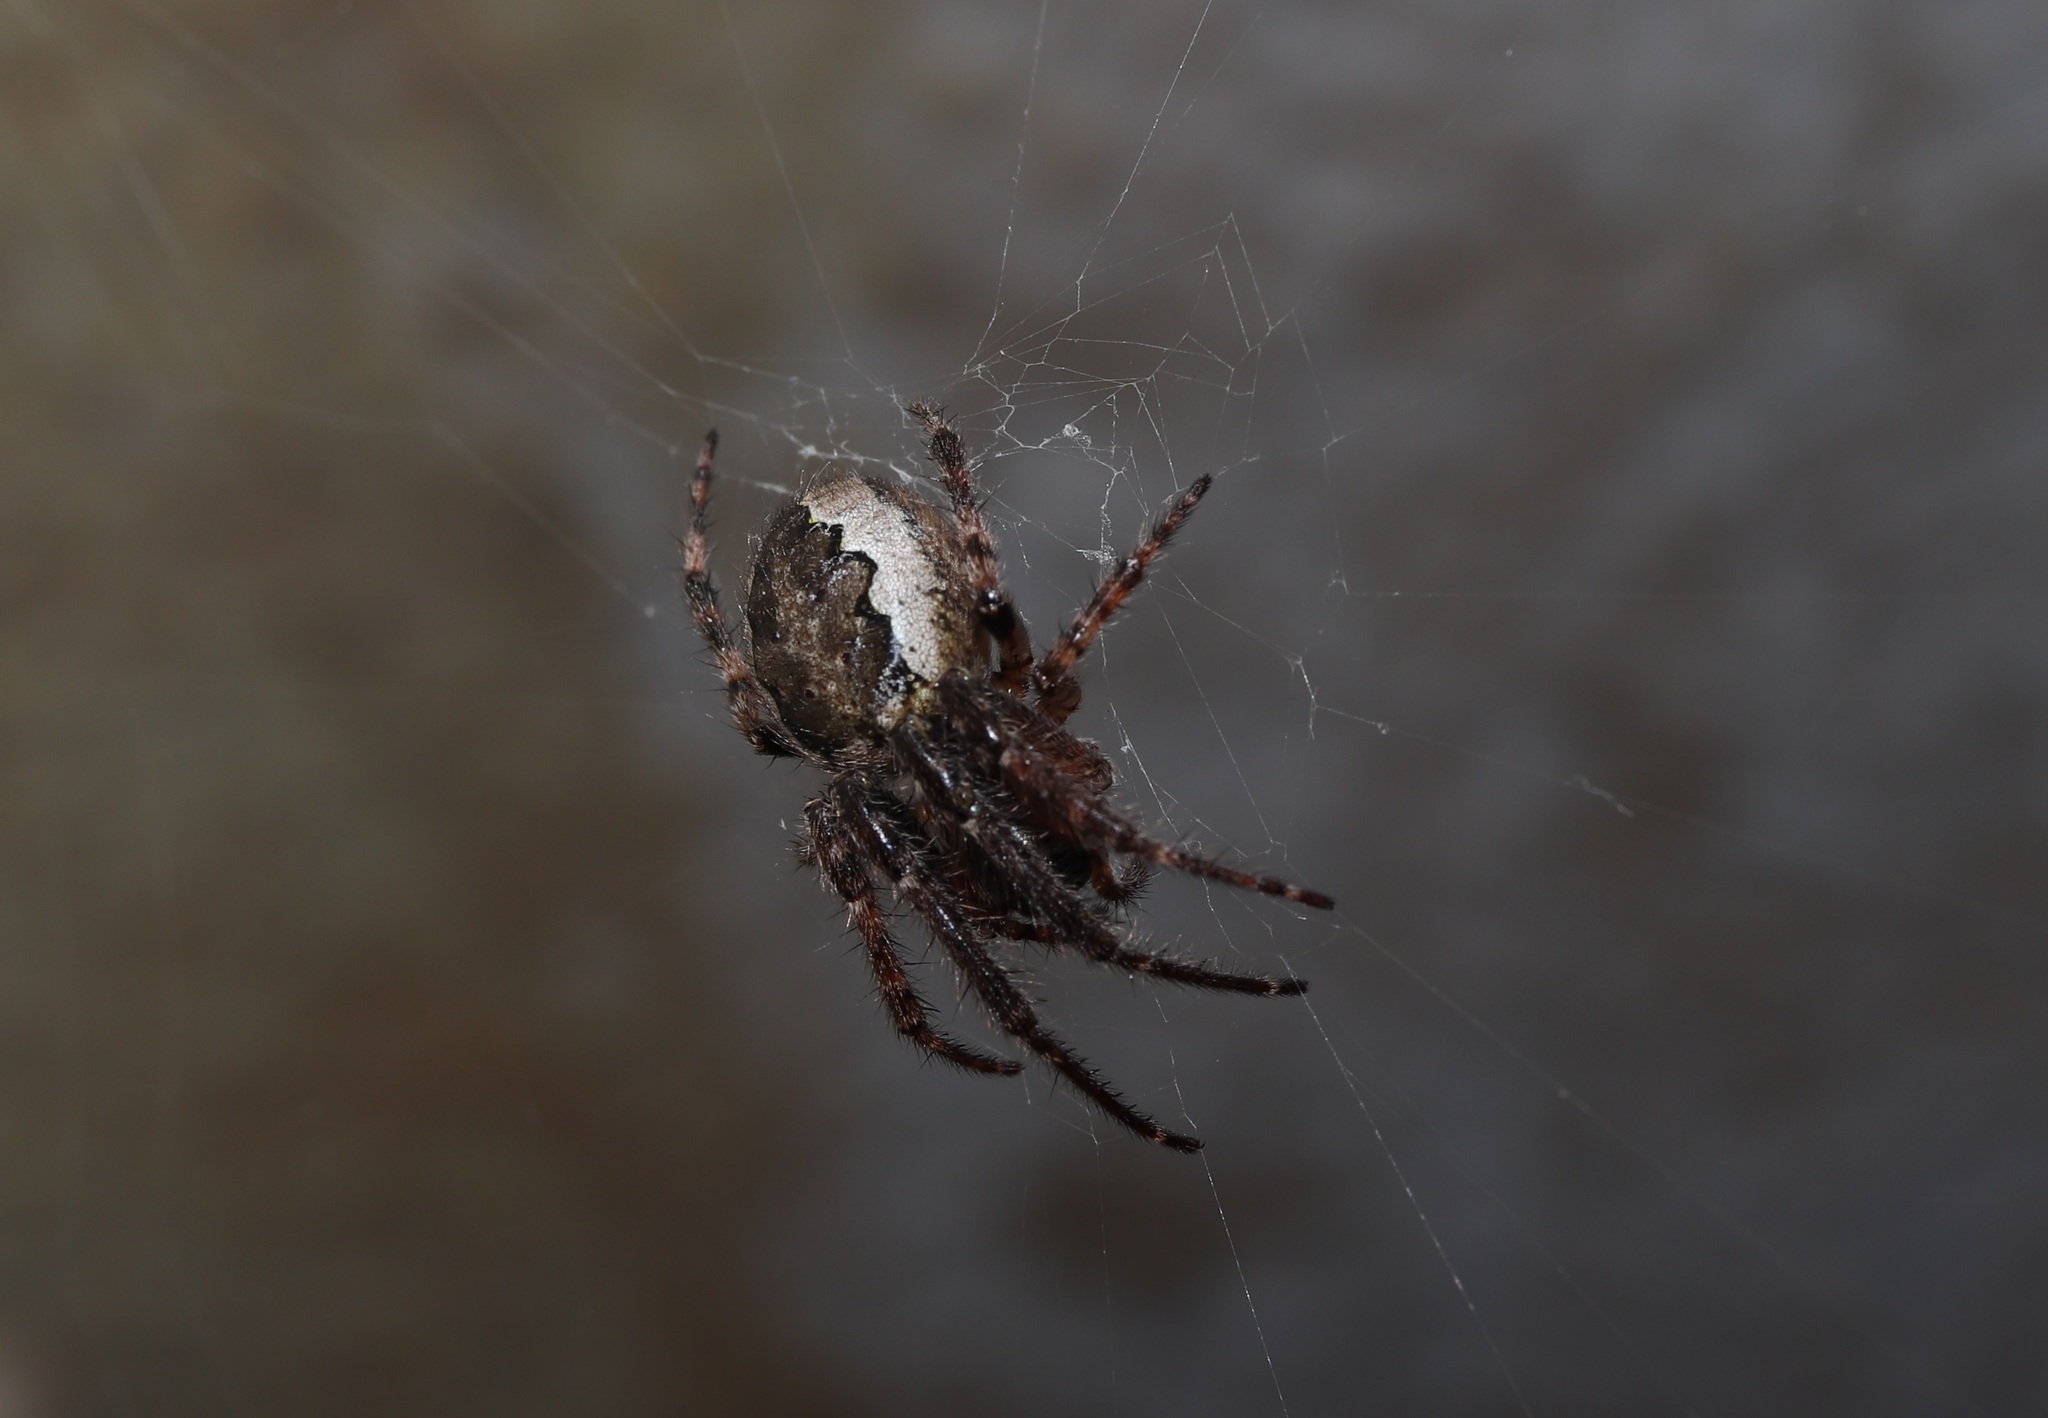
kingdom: Animalia
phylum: Arthropoda
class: Arachnida
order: Araneae
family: Araneidae
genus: Yaginumia
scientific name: Yaginumia sia
